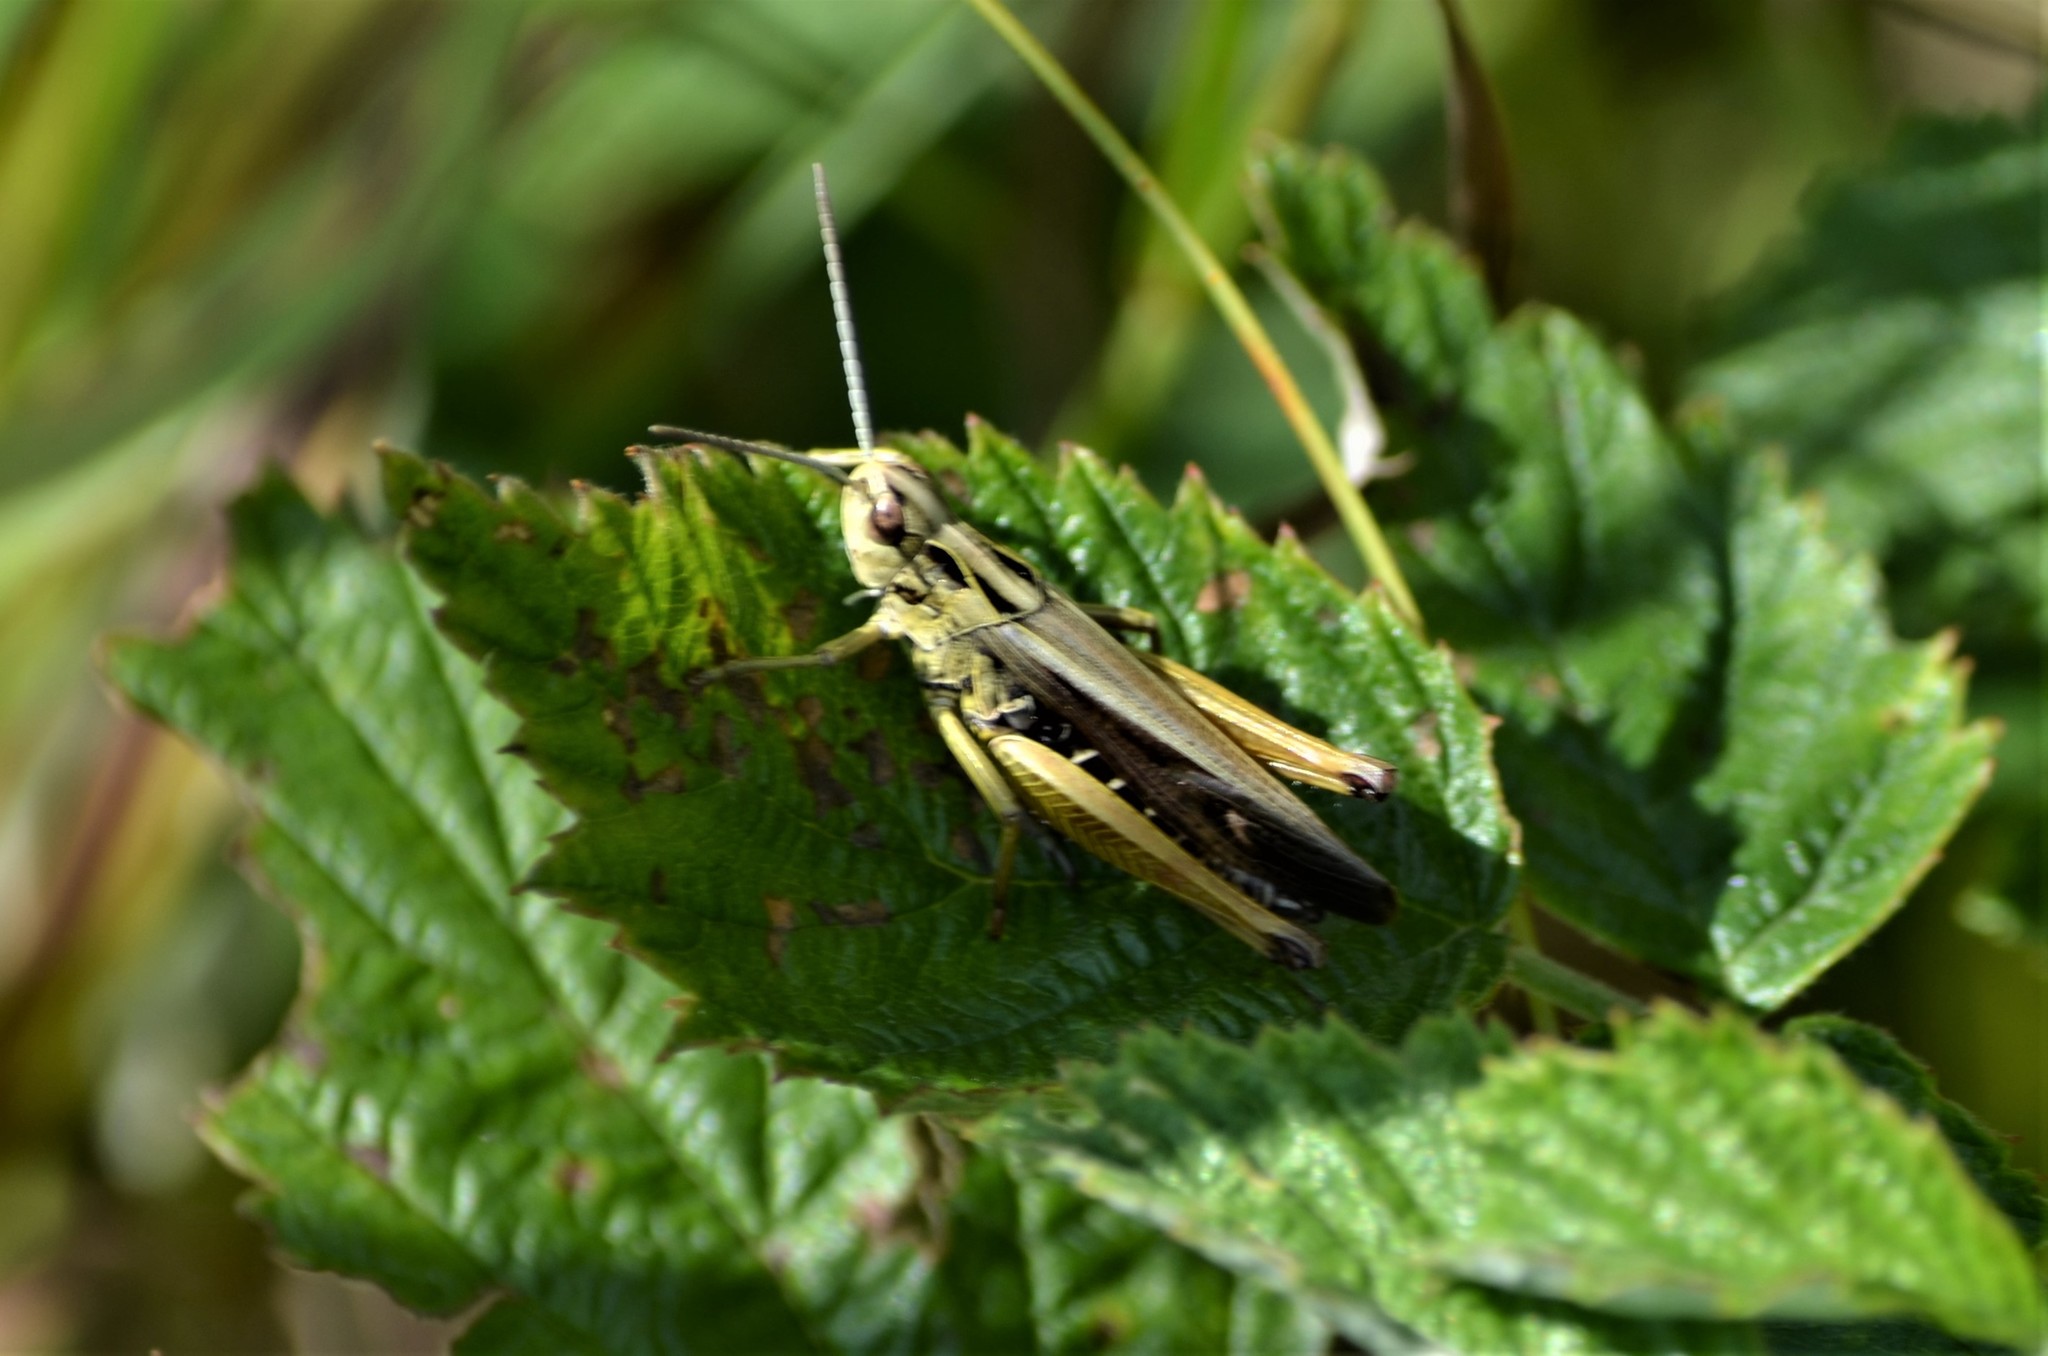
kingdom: Animalia
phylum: Arthropoda
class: Insecta
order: Orthoptera
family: Acrididae
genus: Omocestus
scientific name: Omocestus viridulus
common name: Common green grasshopper
